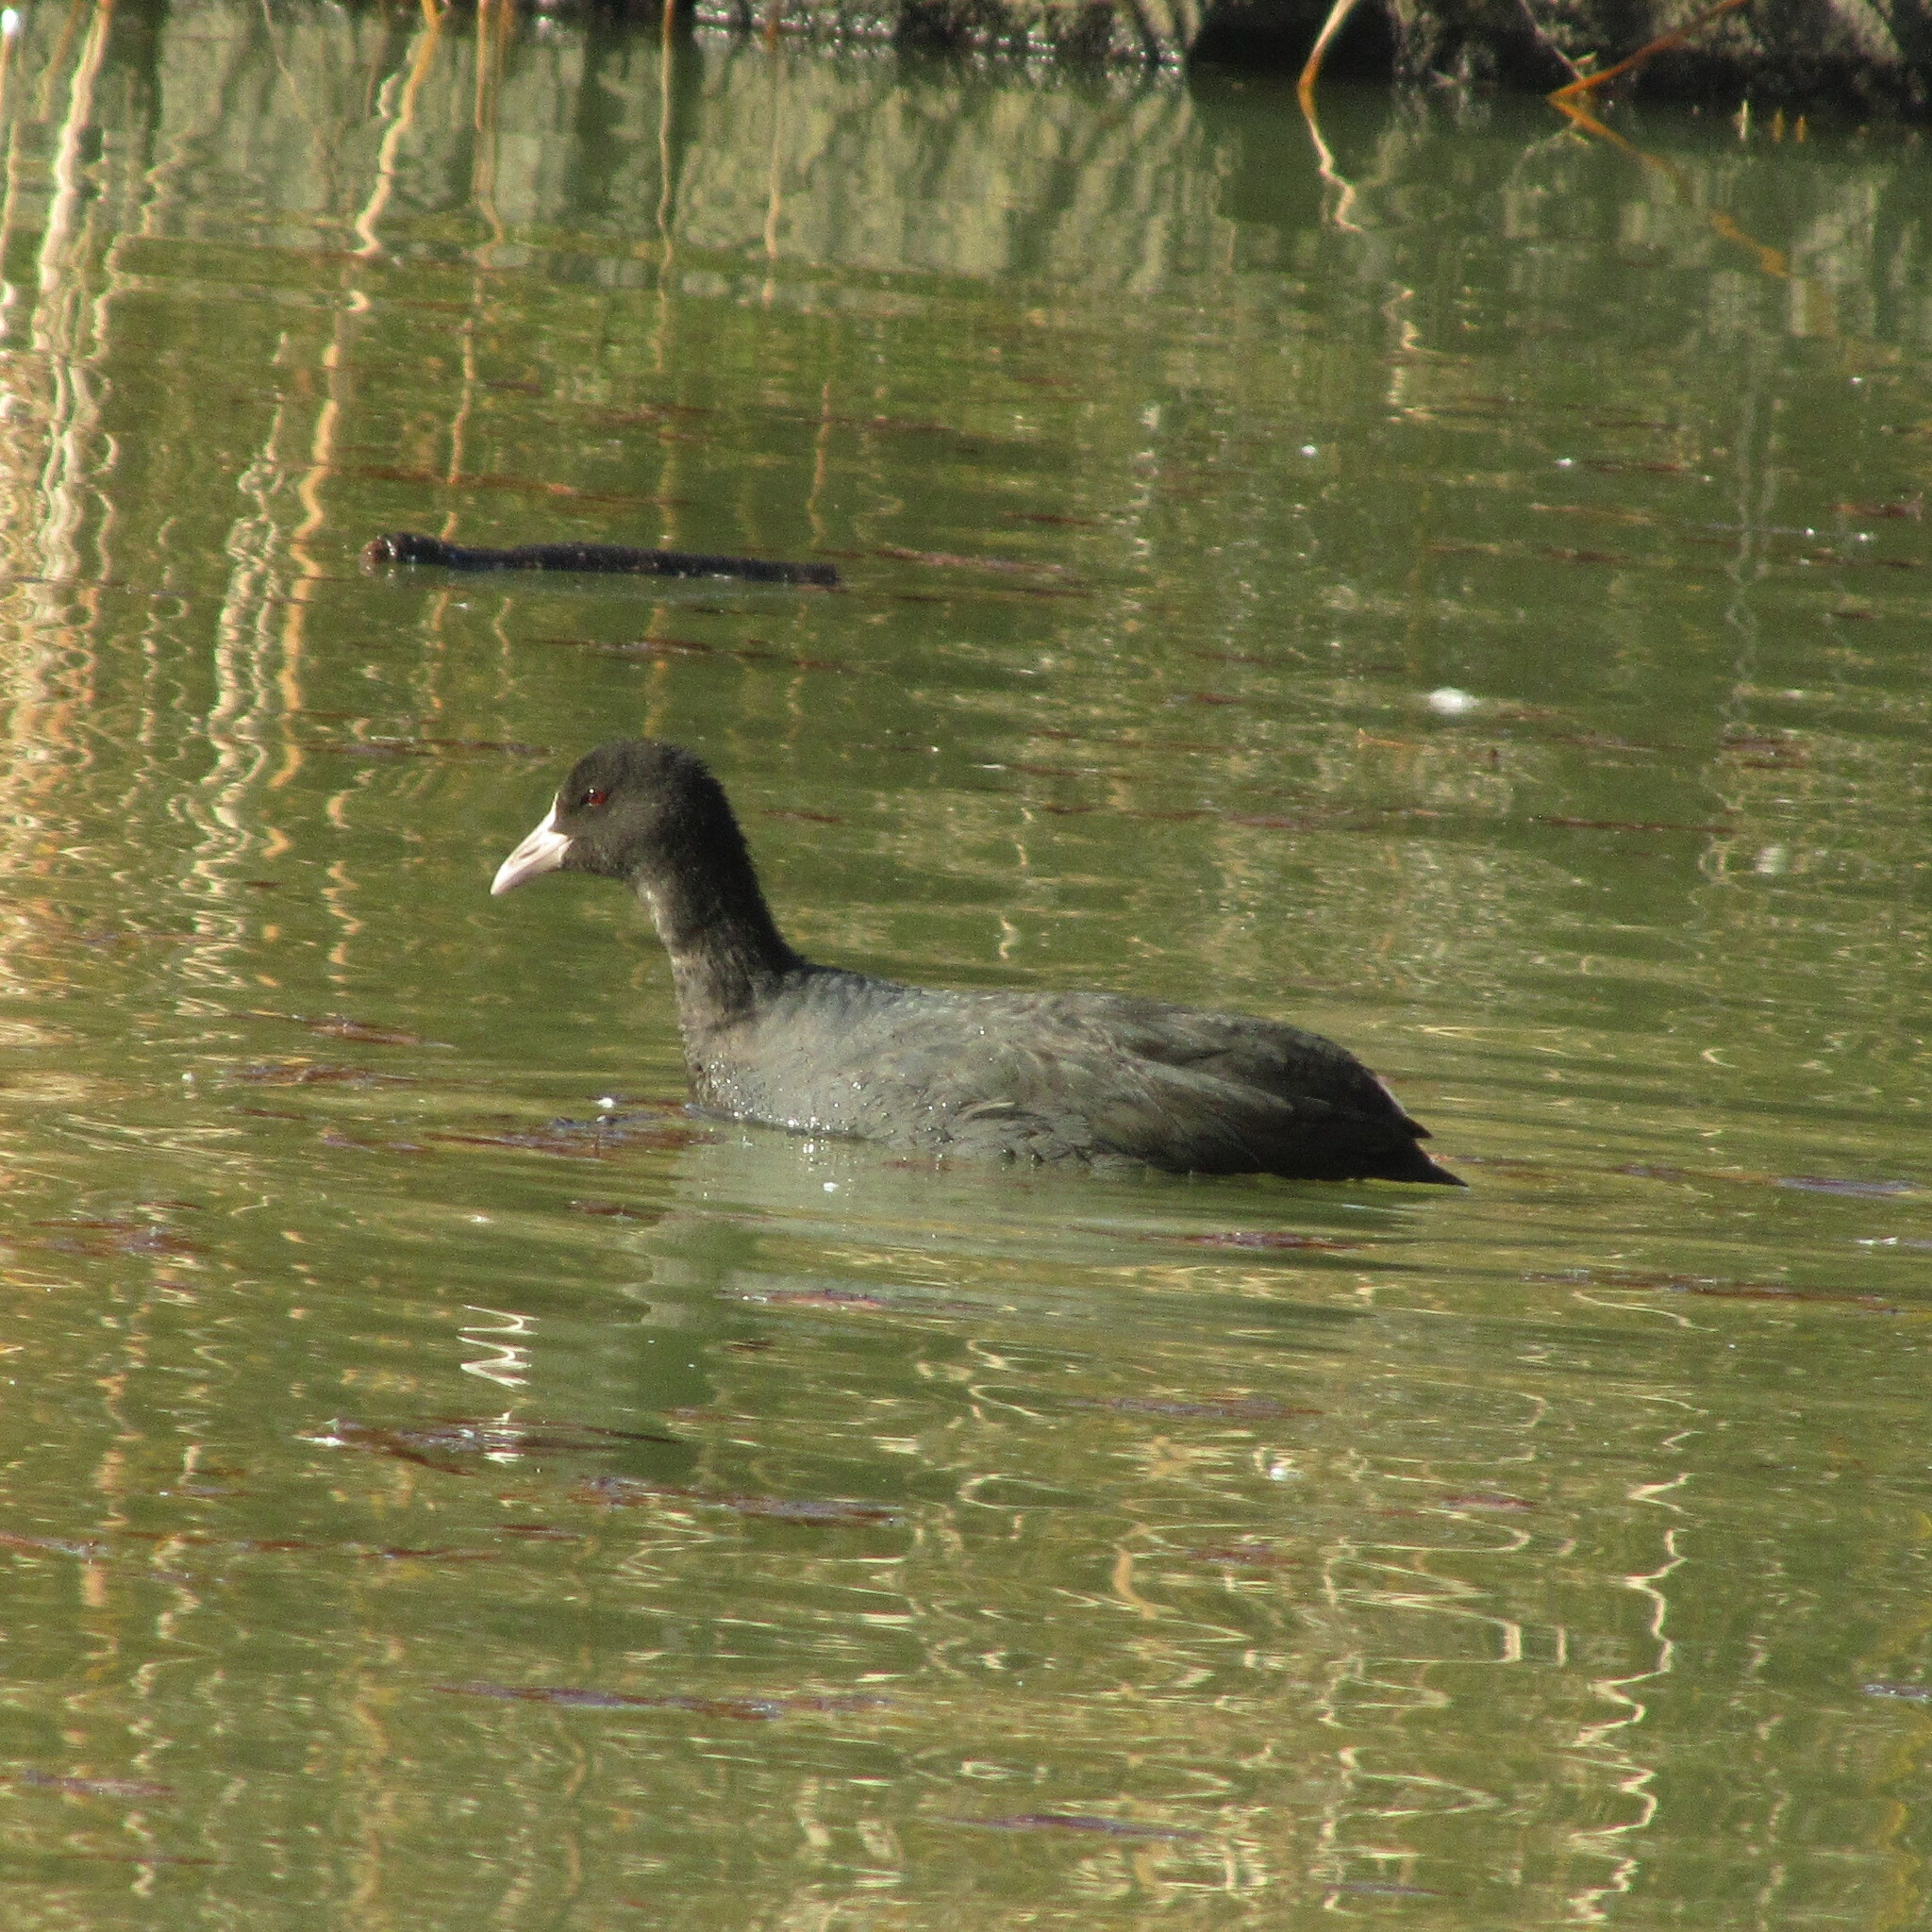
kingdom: Animalia
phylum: Chordata
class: Aves
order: Gruiformes
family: Rallidae
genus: Fulica
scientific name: Fulica atra
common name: Eurasian coot
